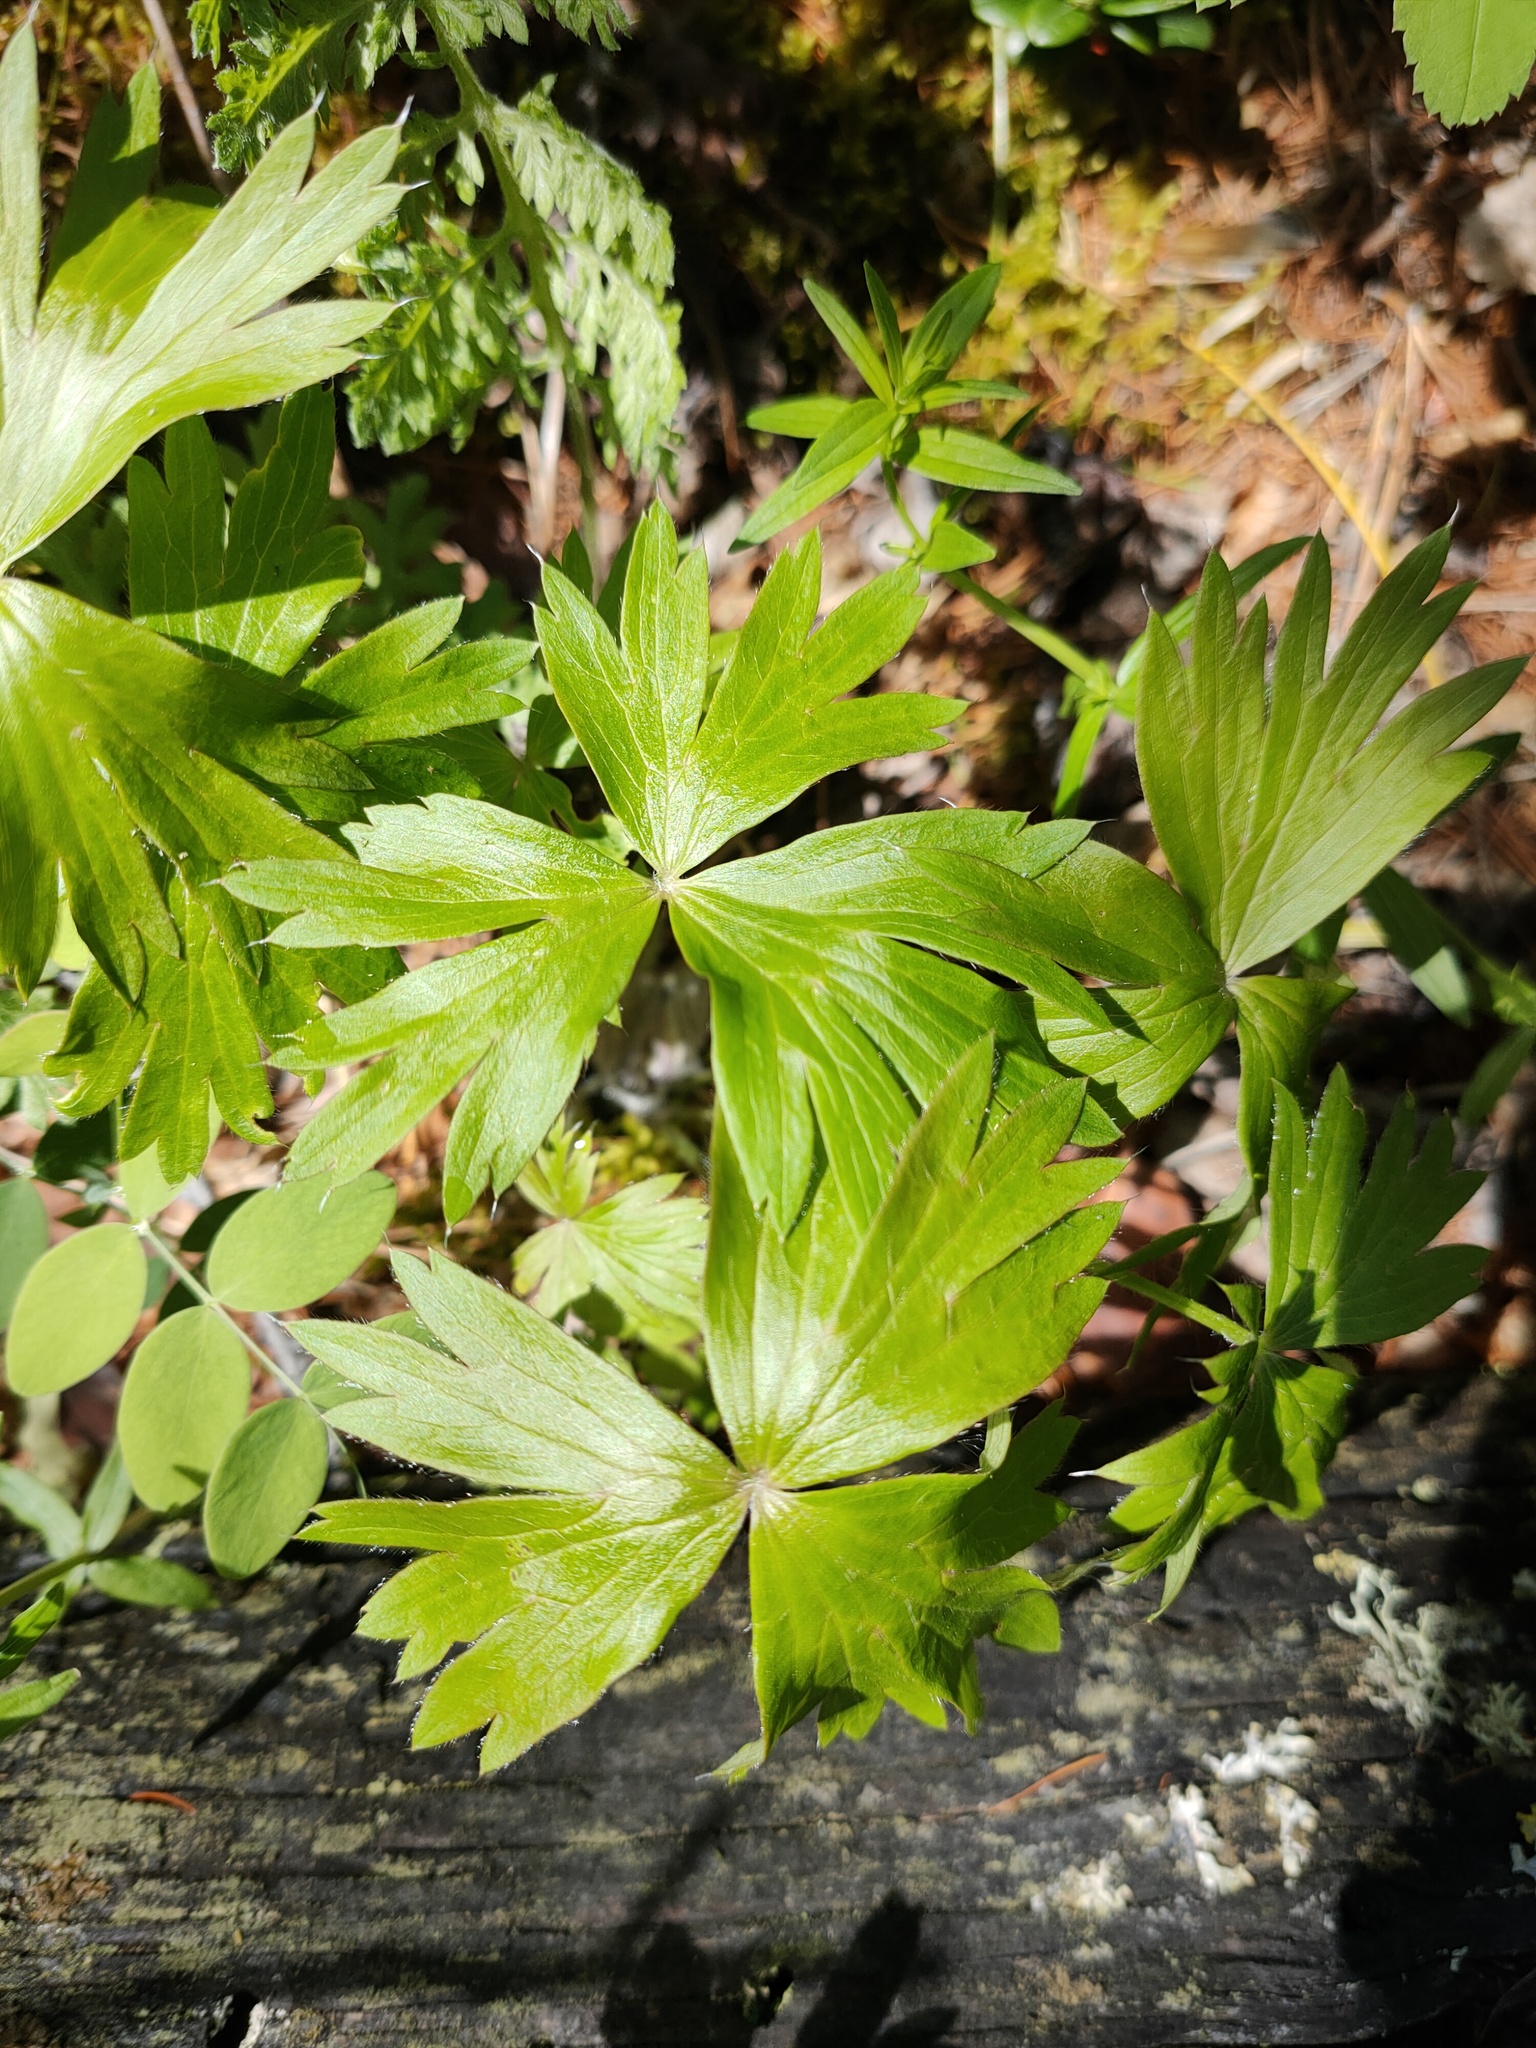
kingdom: Plantae
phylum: Tracheophyta
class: Magnoliopsida
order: Ranunculales
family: Ranunculaceae
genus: Pulsatilla
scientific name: Pulsatilla patens
